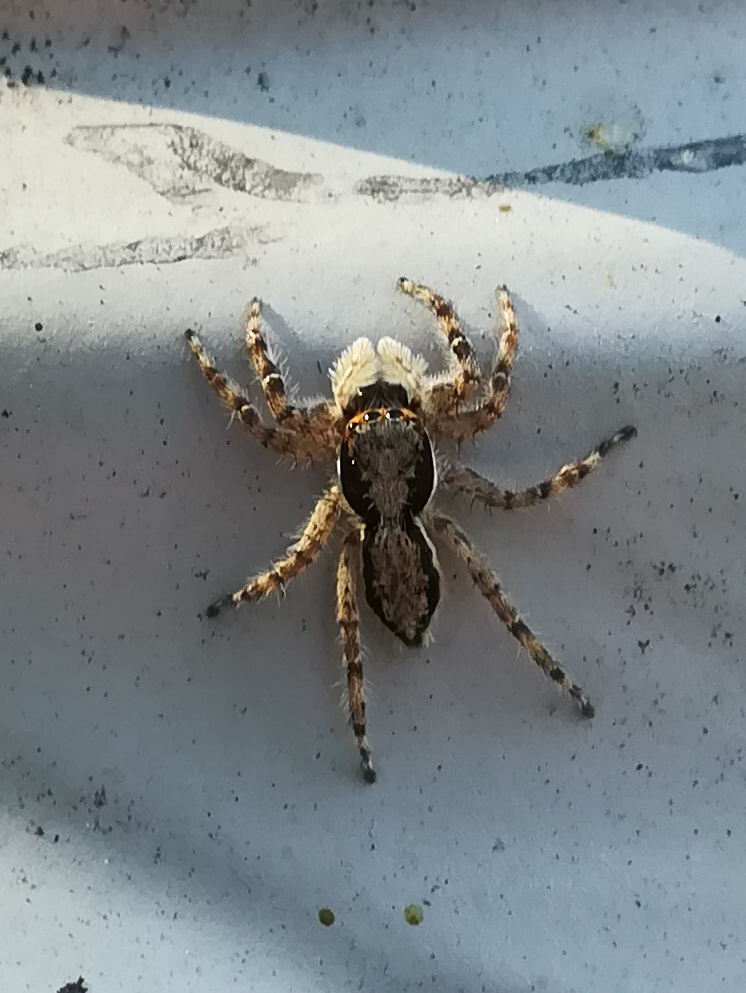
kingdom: Animalia
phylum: Arthropoda
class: Arachnida
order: Araneae
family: Salticidae
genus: Menemerus
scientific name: Menemerus bivittatus
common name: Gray wall jumper
